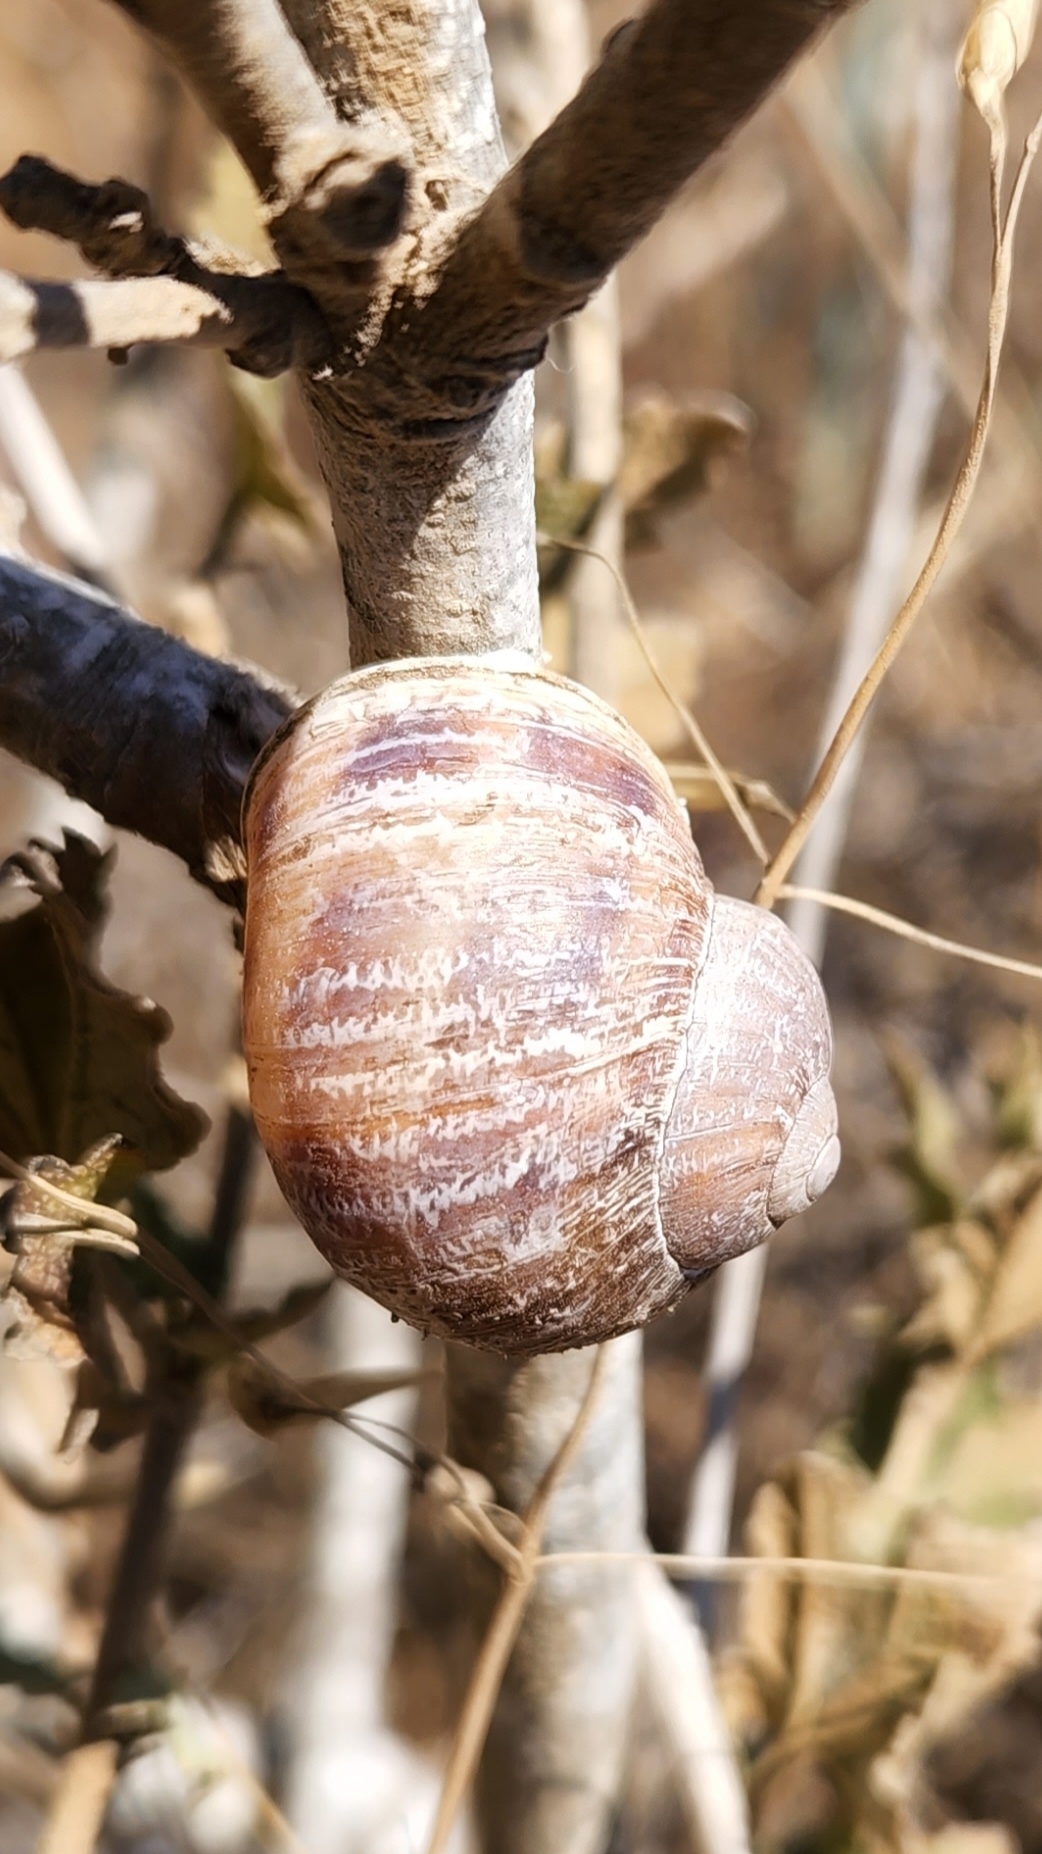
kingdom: Animalia
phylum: Mollusca
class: Gastropoda
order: Stylommatophora
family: Helicidae
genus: Cornu
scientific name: Cornu aspersum
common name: Brown garden snail
